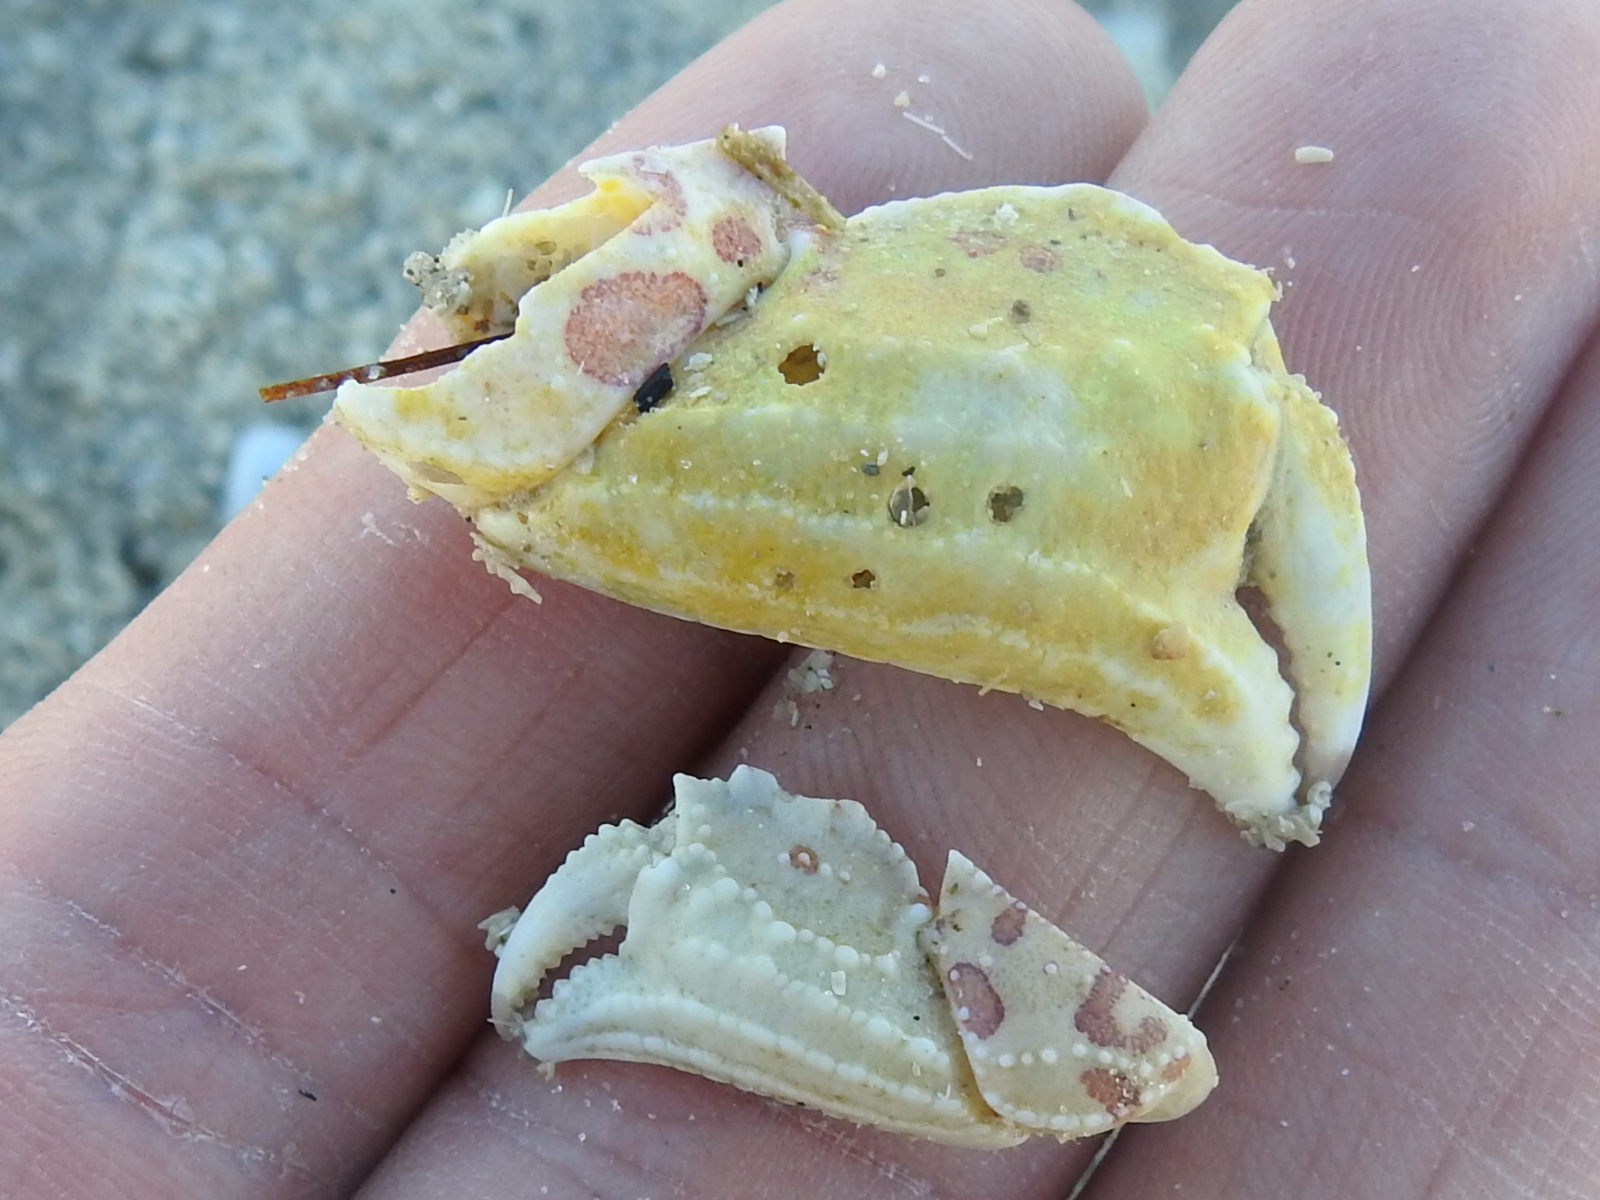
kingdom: Animalia
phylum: Arthropoda
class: Malacostraca
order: Decapoda
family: Aethridae
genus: Hepatus
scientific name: Hepatus epheliticus
